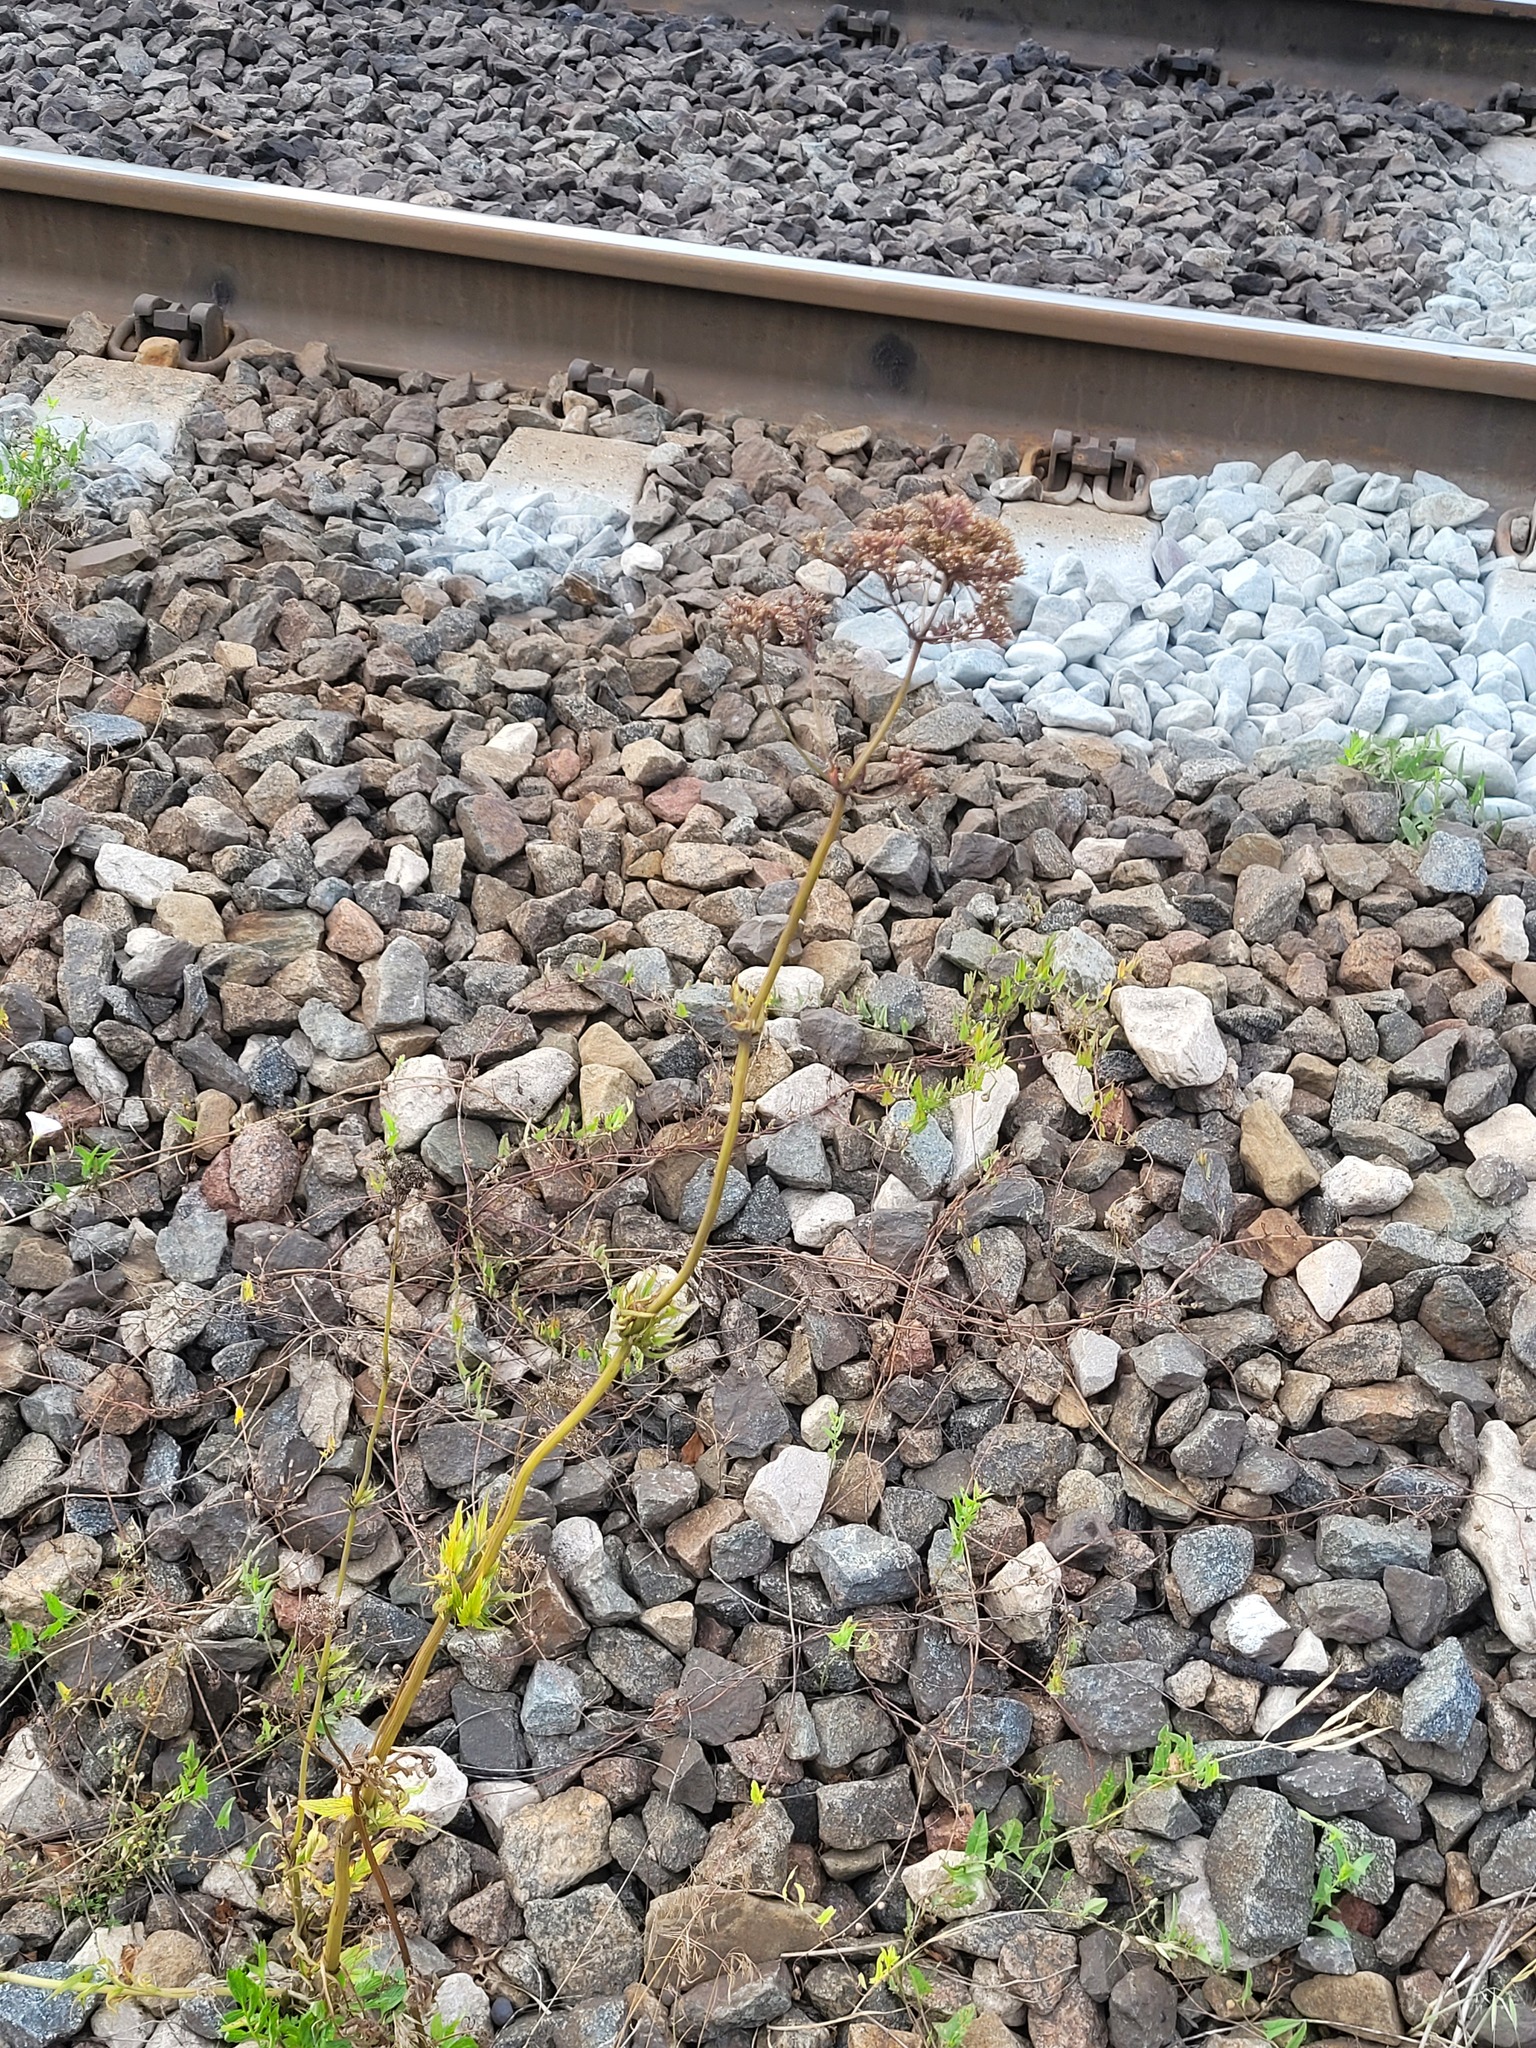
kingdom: Plantae
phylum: Tracheophyta
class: Magnoliopsida
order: Dipsacales
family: Caprifoliaceae
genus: Valeriana
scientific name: Valeriana officinalis
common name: Common valerian
